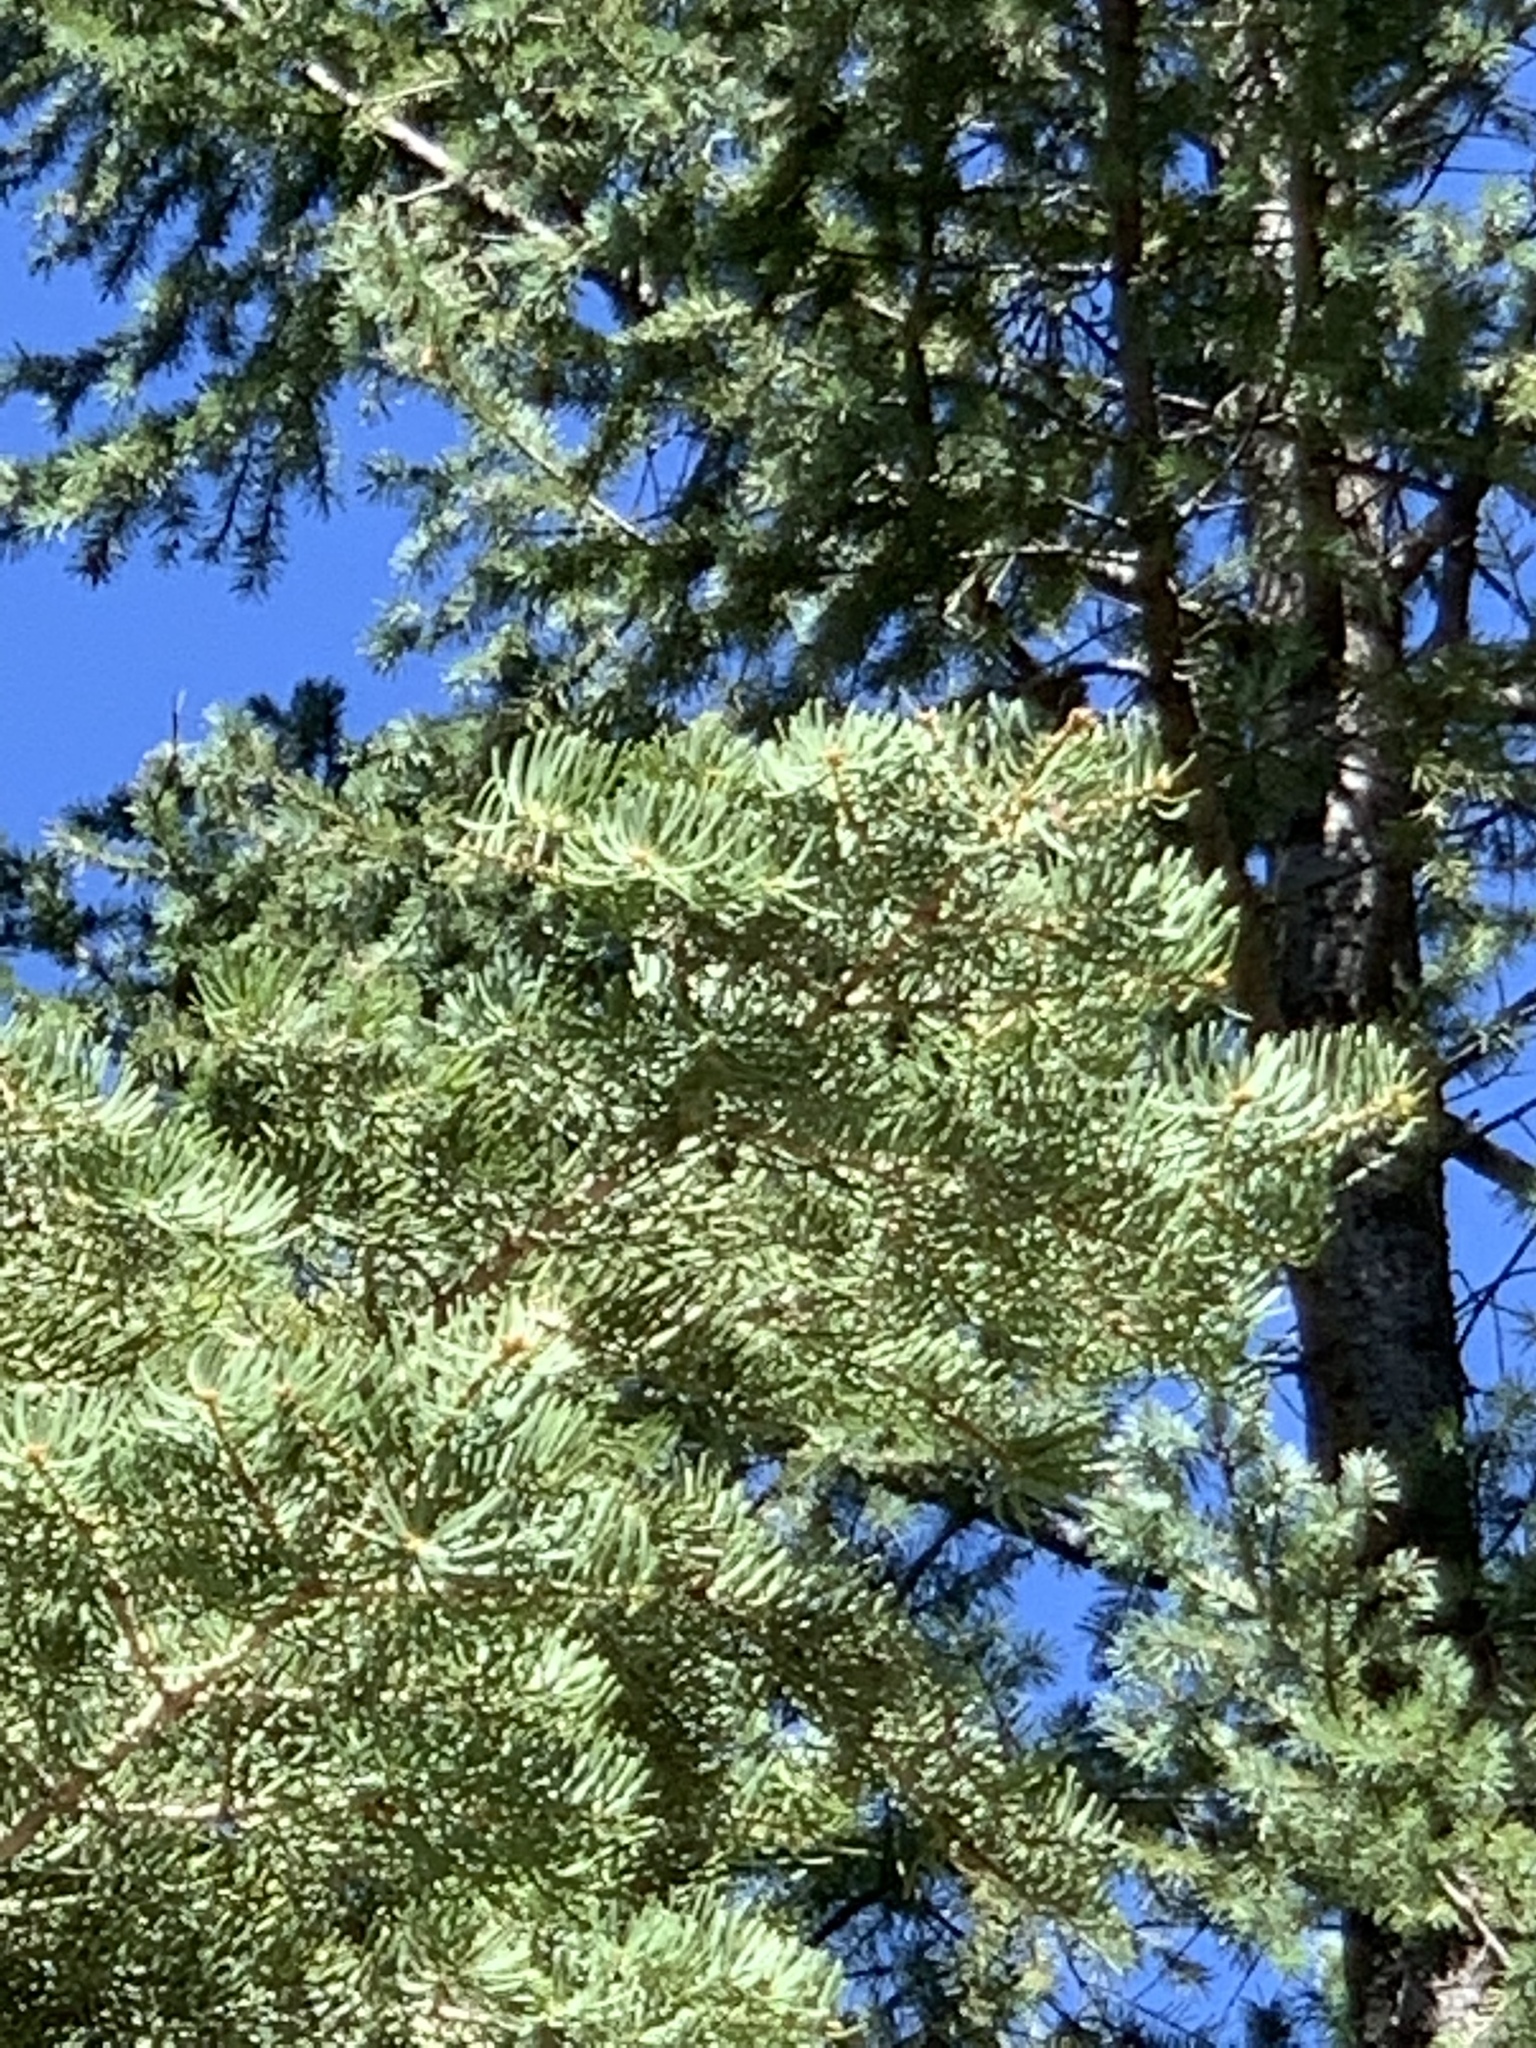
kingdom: Plantae
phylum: Tracheophyta
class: Pinopsida
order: Pinales
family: Pinaceae
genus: Abies
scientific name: Abies concolor
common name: Colorado fir
